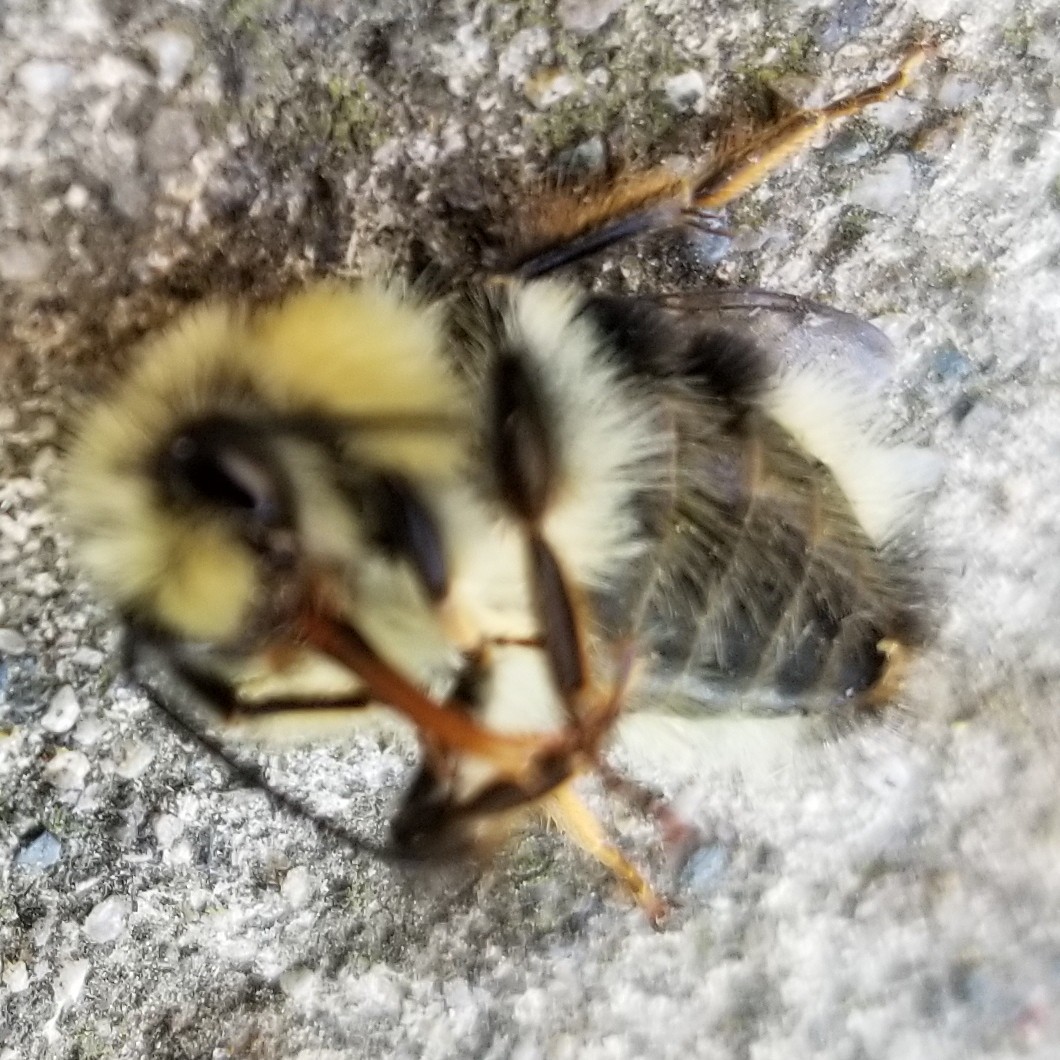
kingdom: Animalia
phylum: Arthropoda
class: Insecta
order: Hymenoptera
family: Apidae
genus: Bombus
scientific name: Bombus melanopygus
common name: Black tail bumble bee
